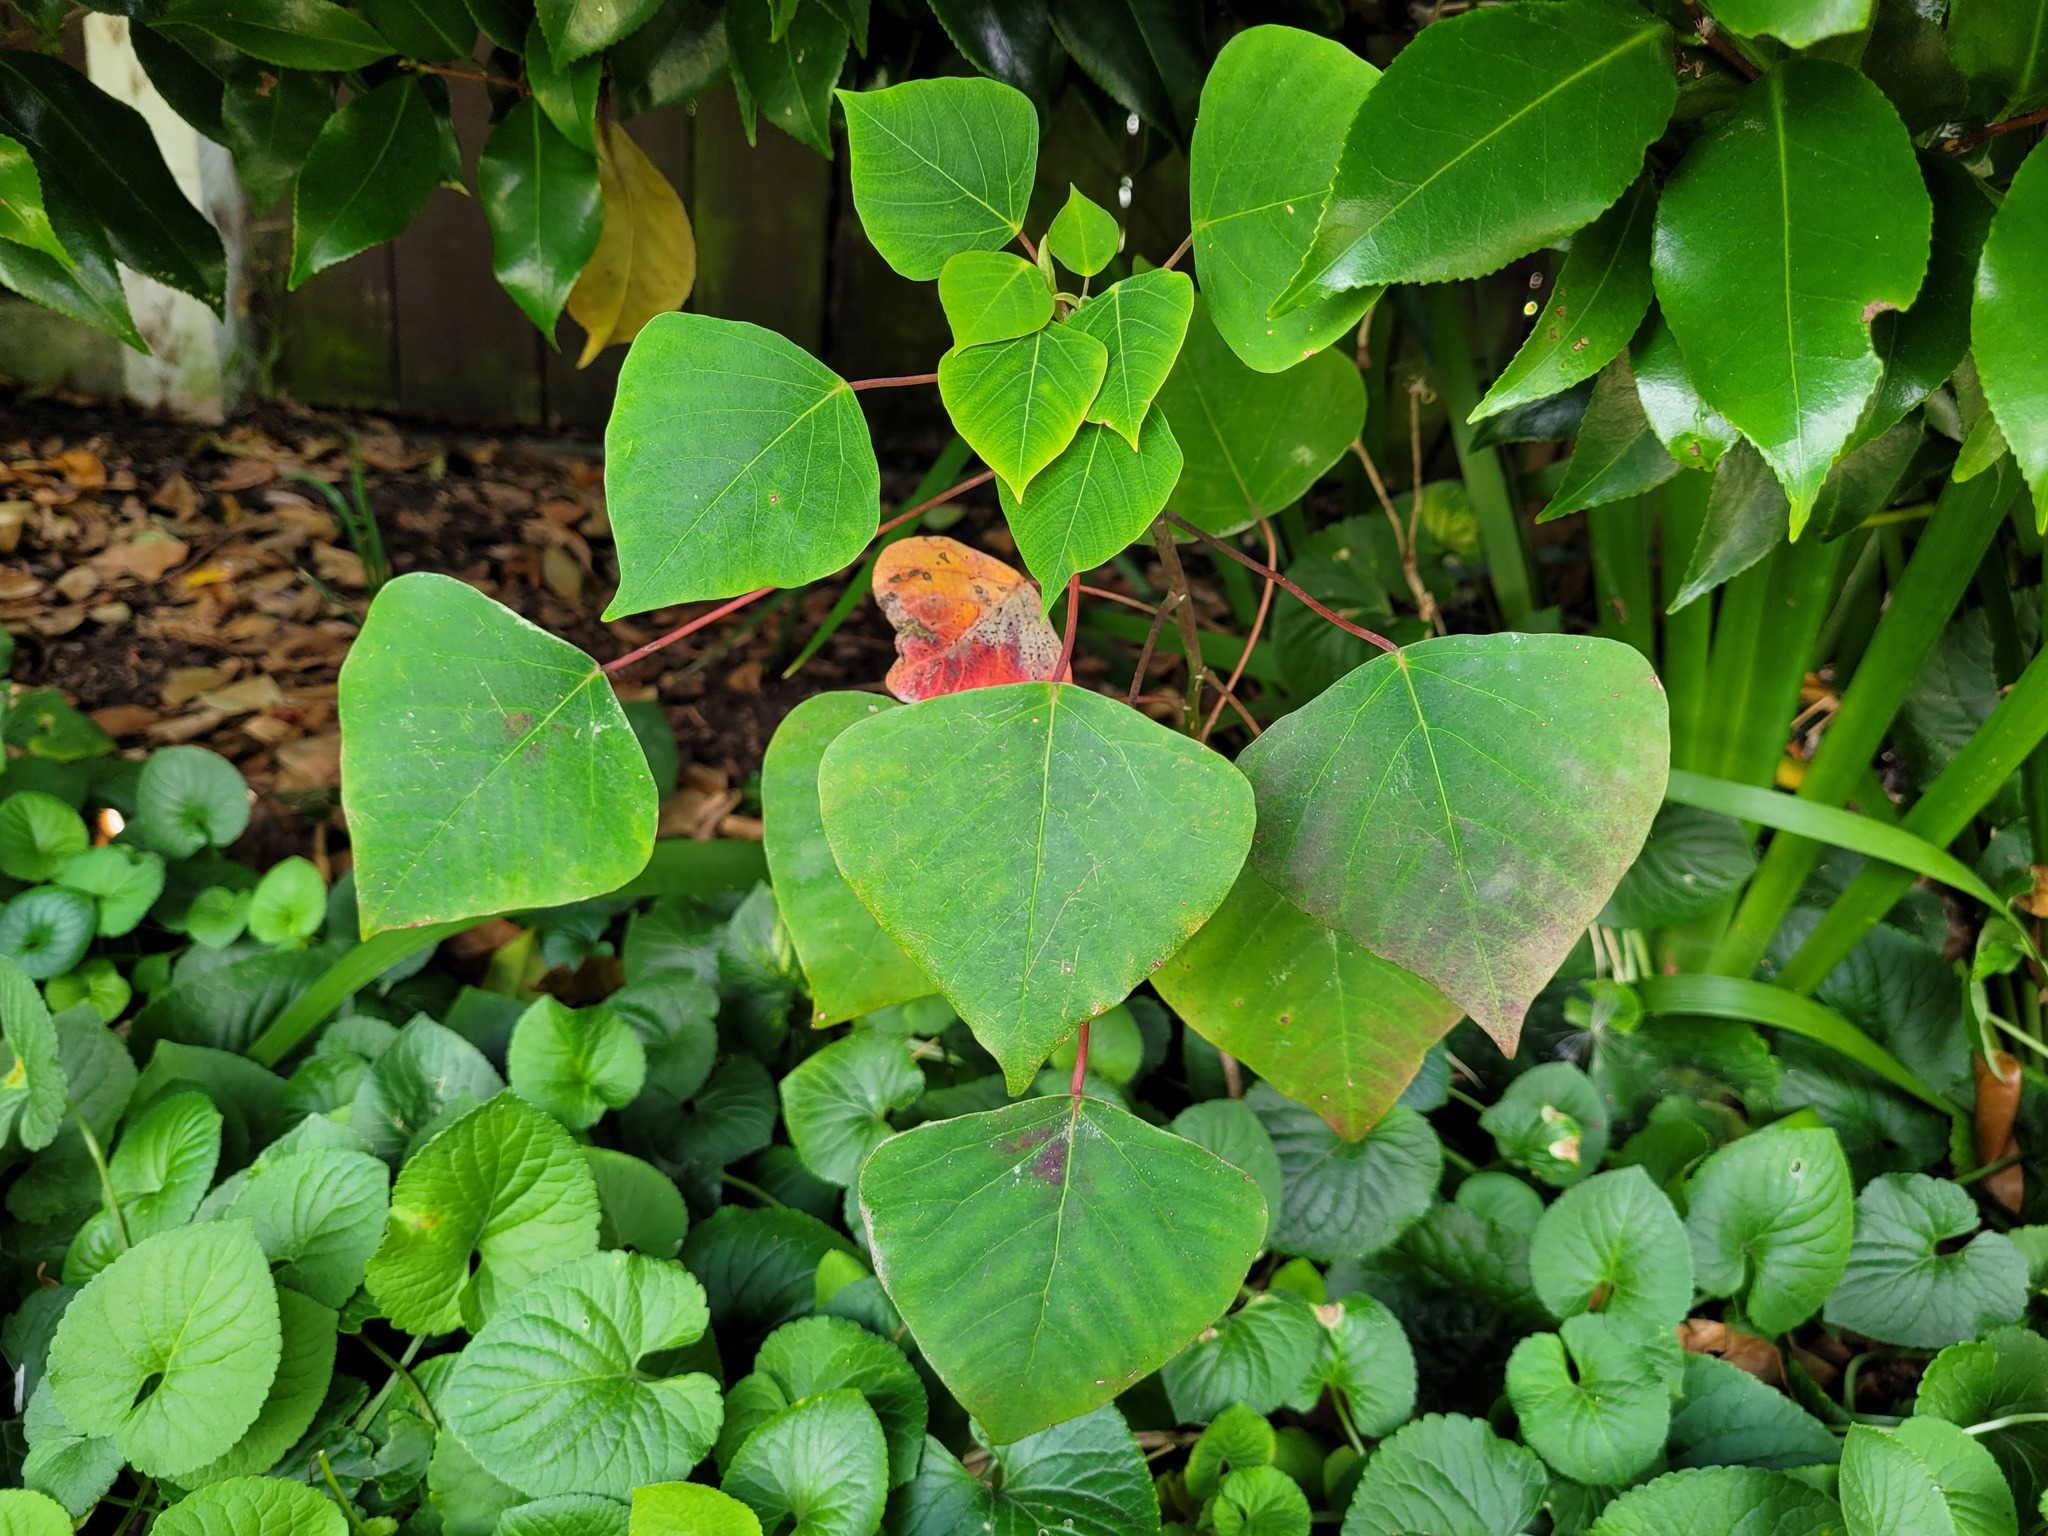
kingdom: Plantae
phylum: Tracheophyta
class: Magnoliopsida
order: Malpighiales
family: Euphorbiaceae
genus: Homalanthus
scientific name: Homalanthus populifolius
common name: Queensland poplar
